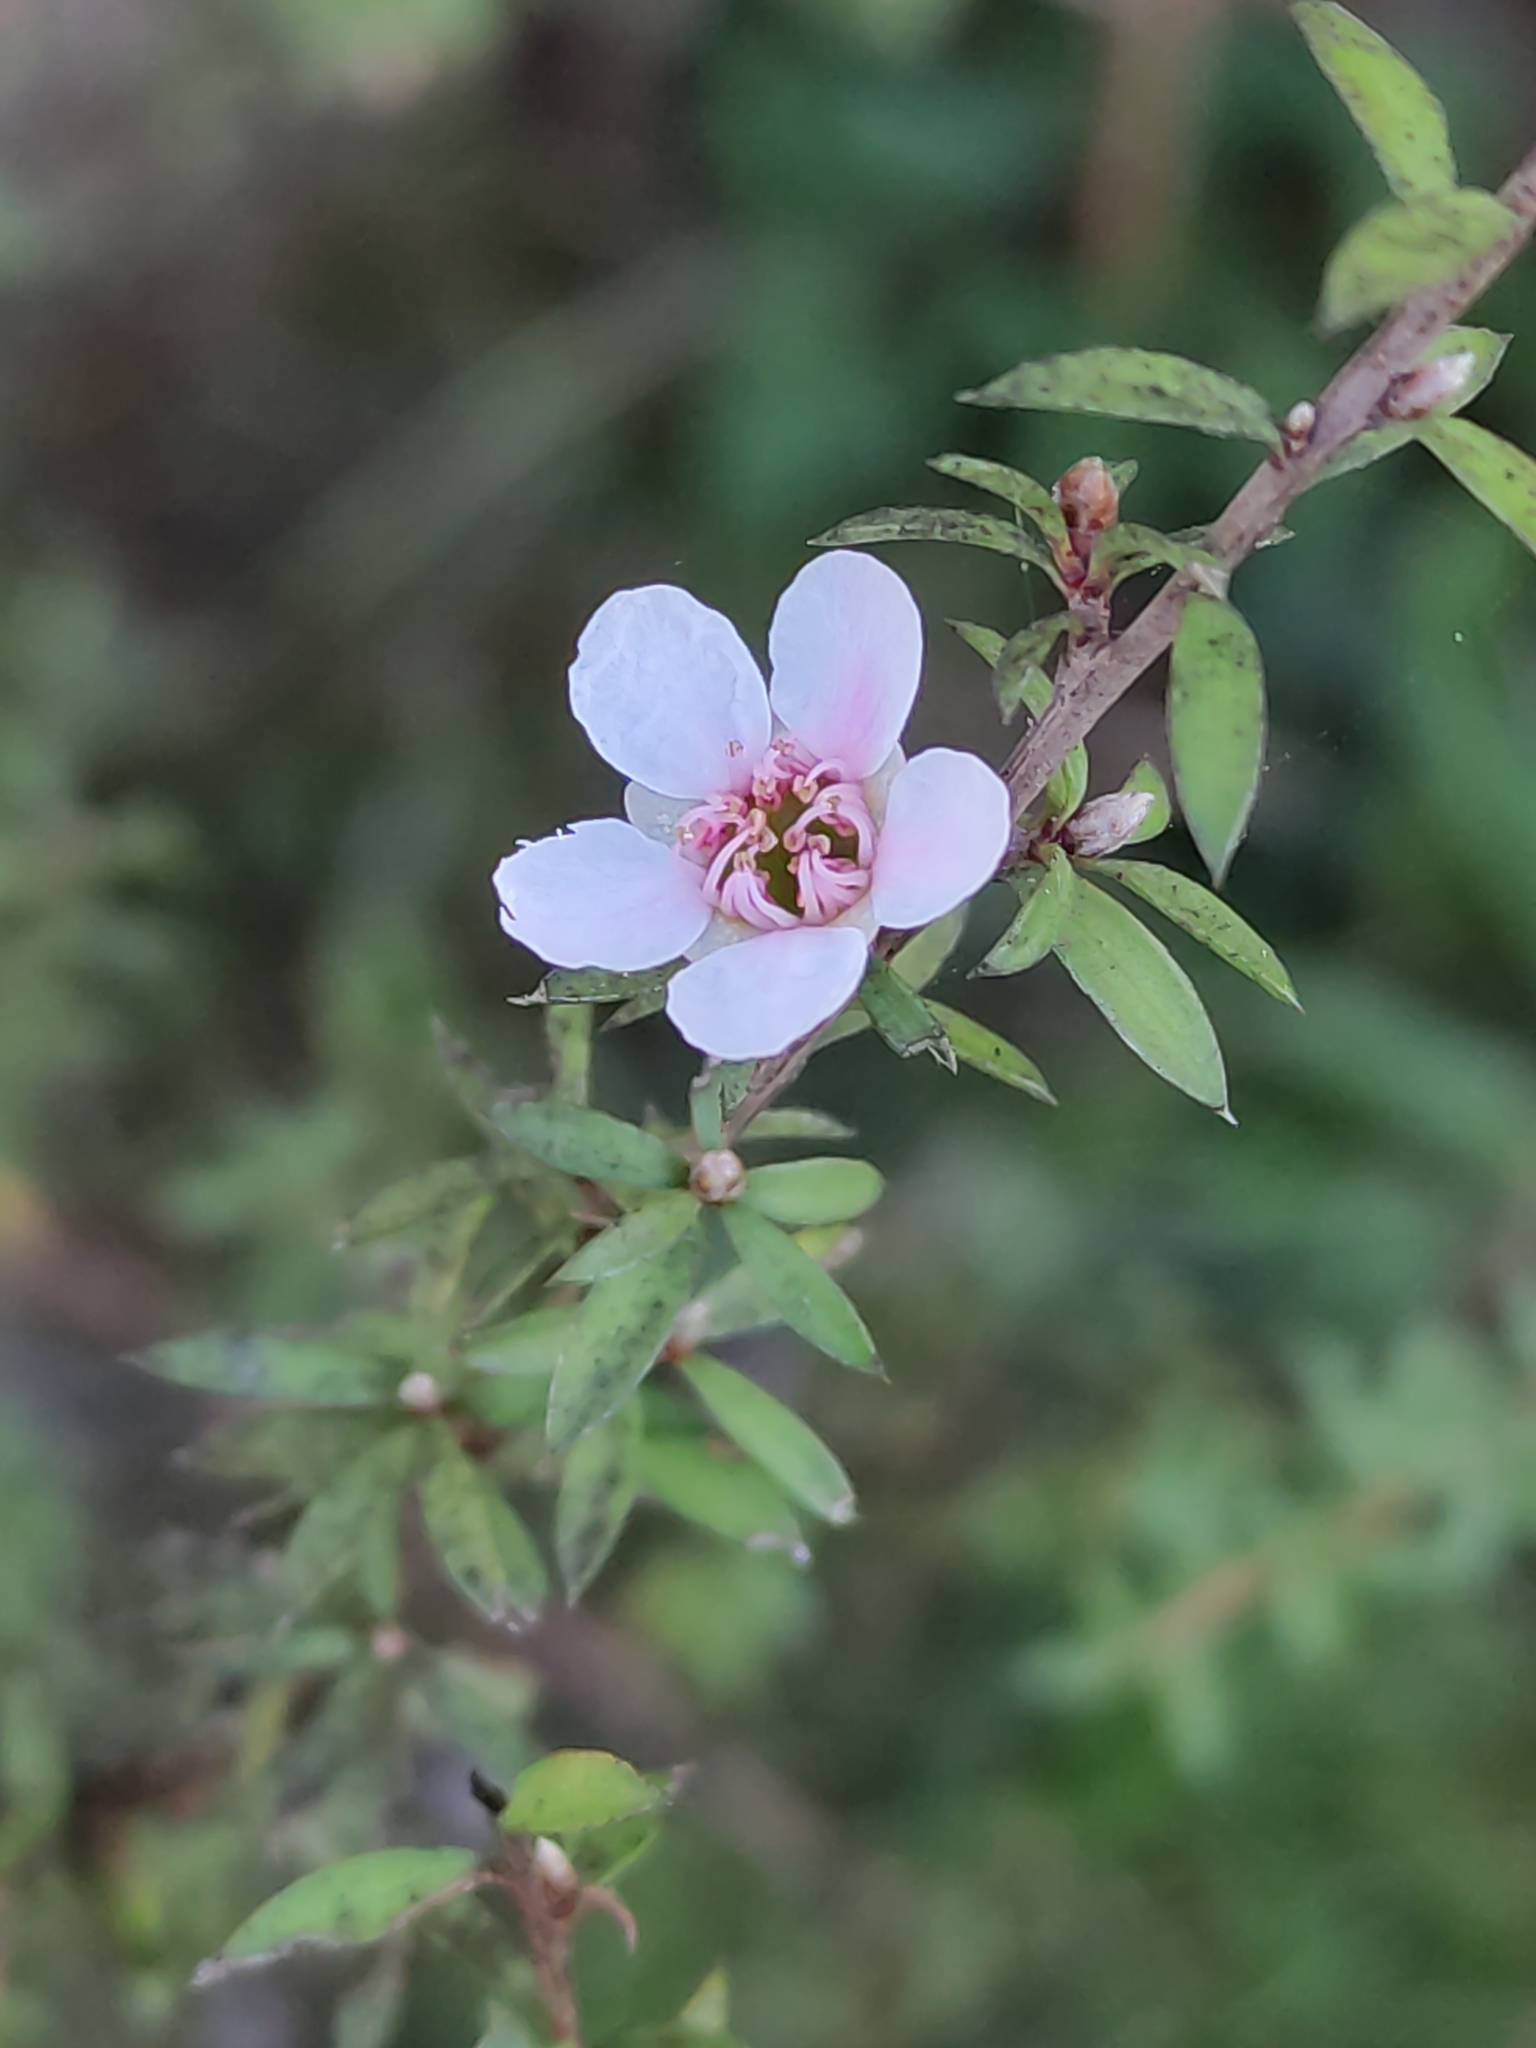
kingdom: Plantae
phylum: Tracheophyta
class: Magnoliopsida
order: Myrtales
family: Myrtaceae
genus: Leptospermum
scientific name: Leptospermum scoparium
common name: Broom tea-tree
